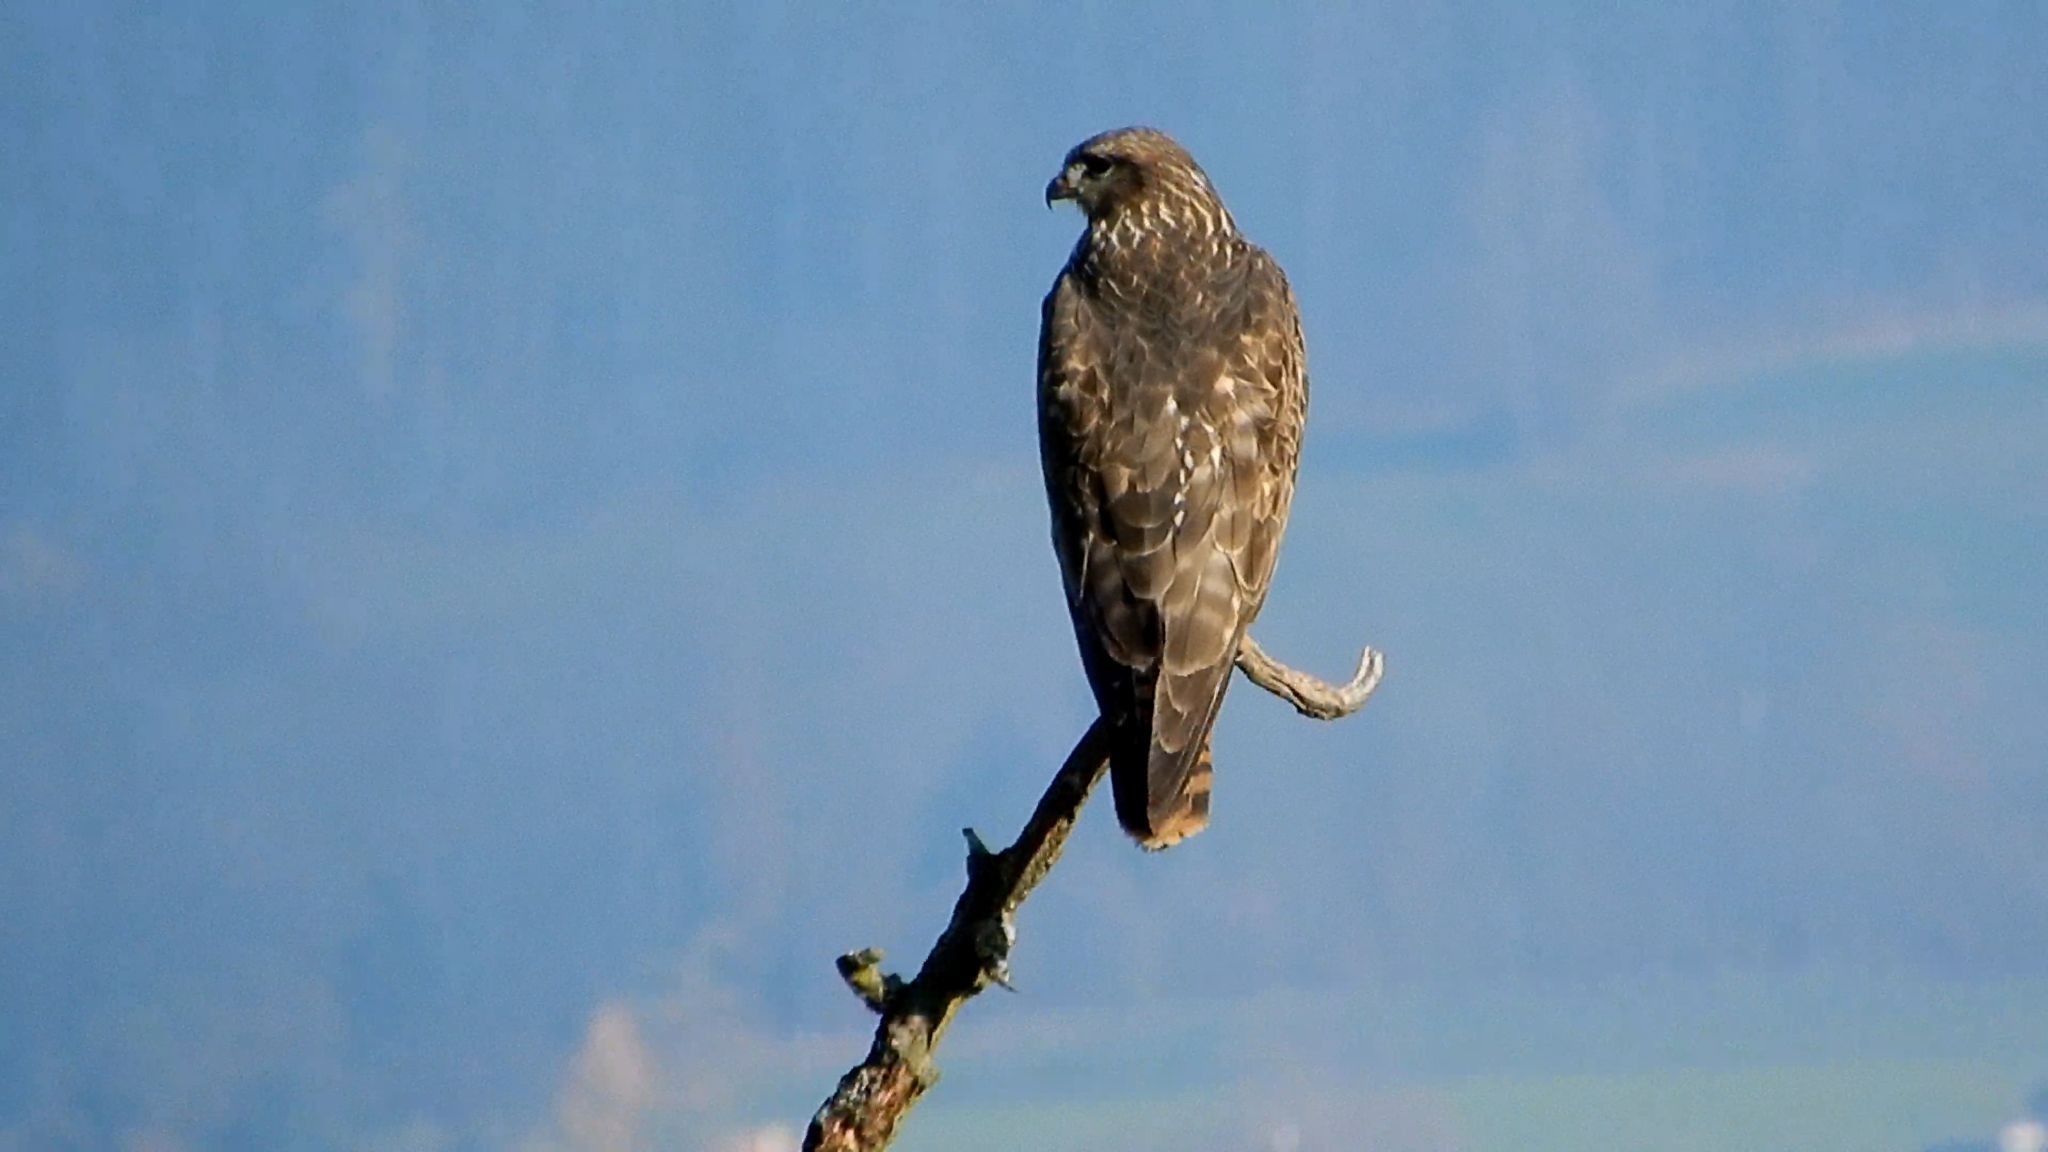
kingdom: Animalia
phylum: Chordata
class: Aves
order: Accipitriformes
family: Accipitridae
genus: Buteo
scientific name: Buteo buteo
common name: Common buzzard
